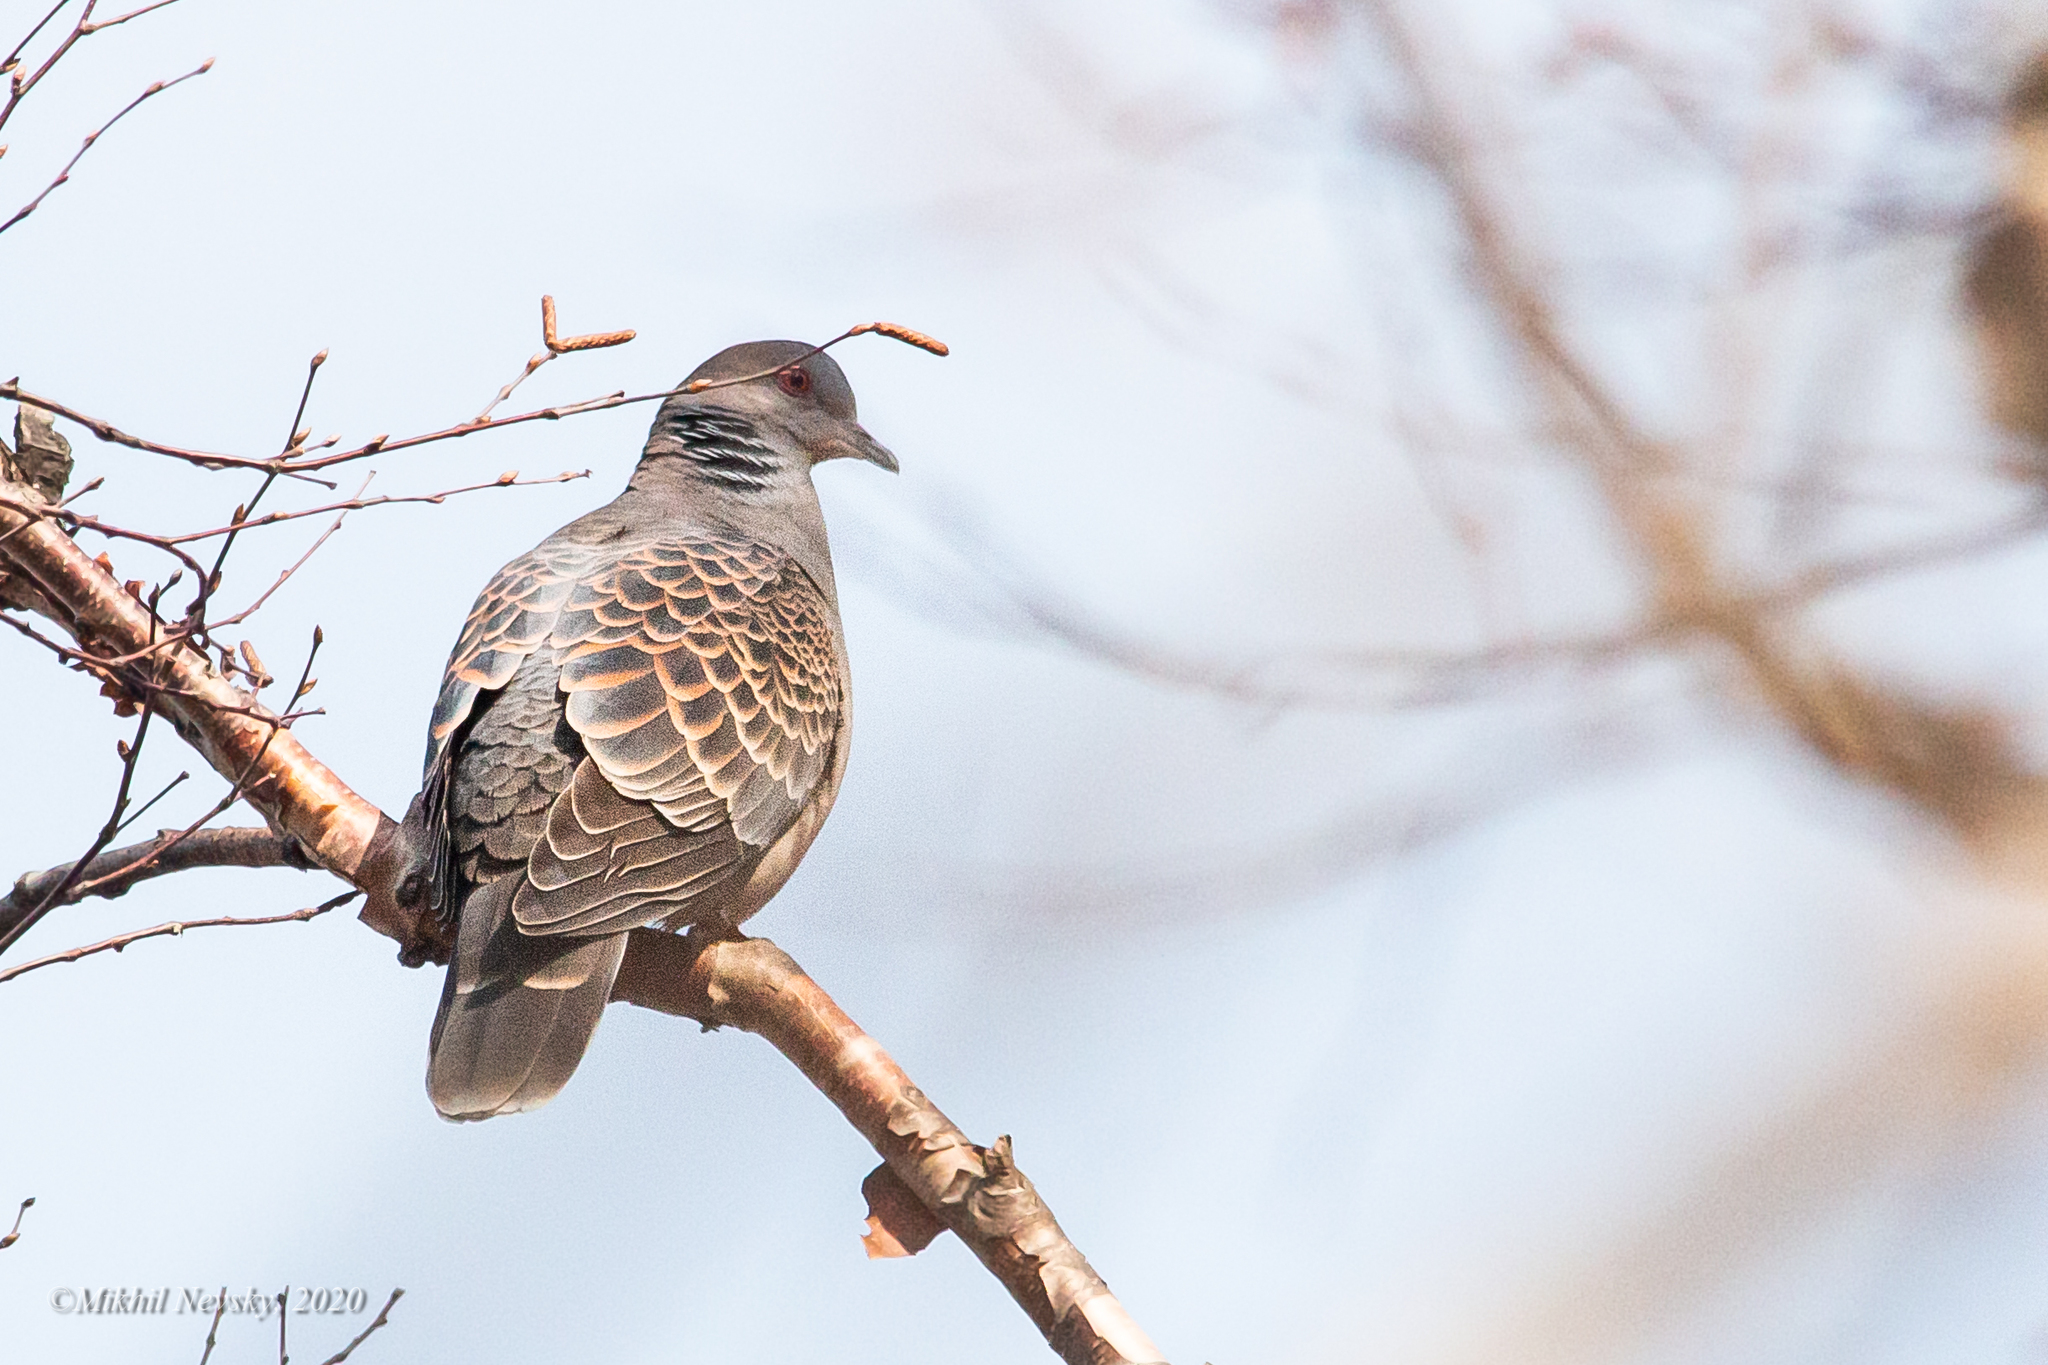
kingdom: Animalia
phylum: Chordata
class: Aves
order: Columbiformes
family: Columbidae
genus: Streptopelia
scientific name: Streptopelia orientalis
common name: Oriental turtle dove
